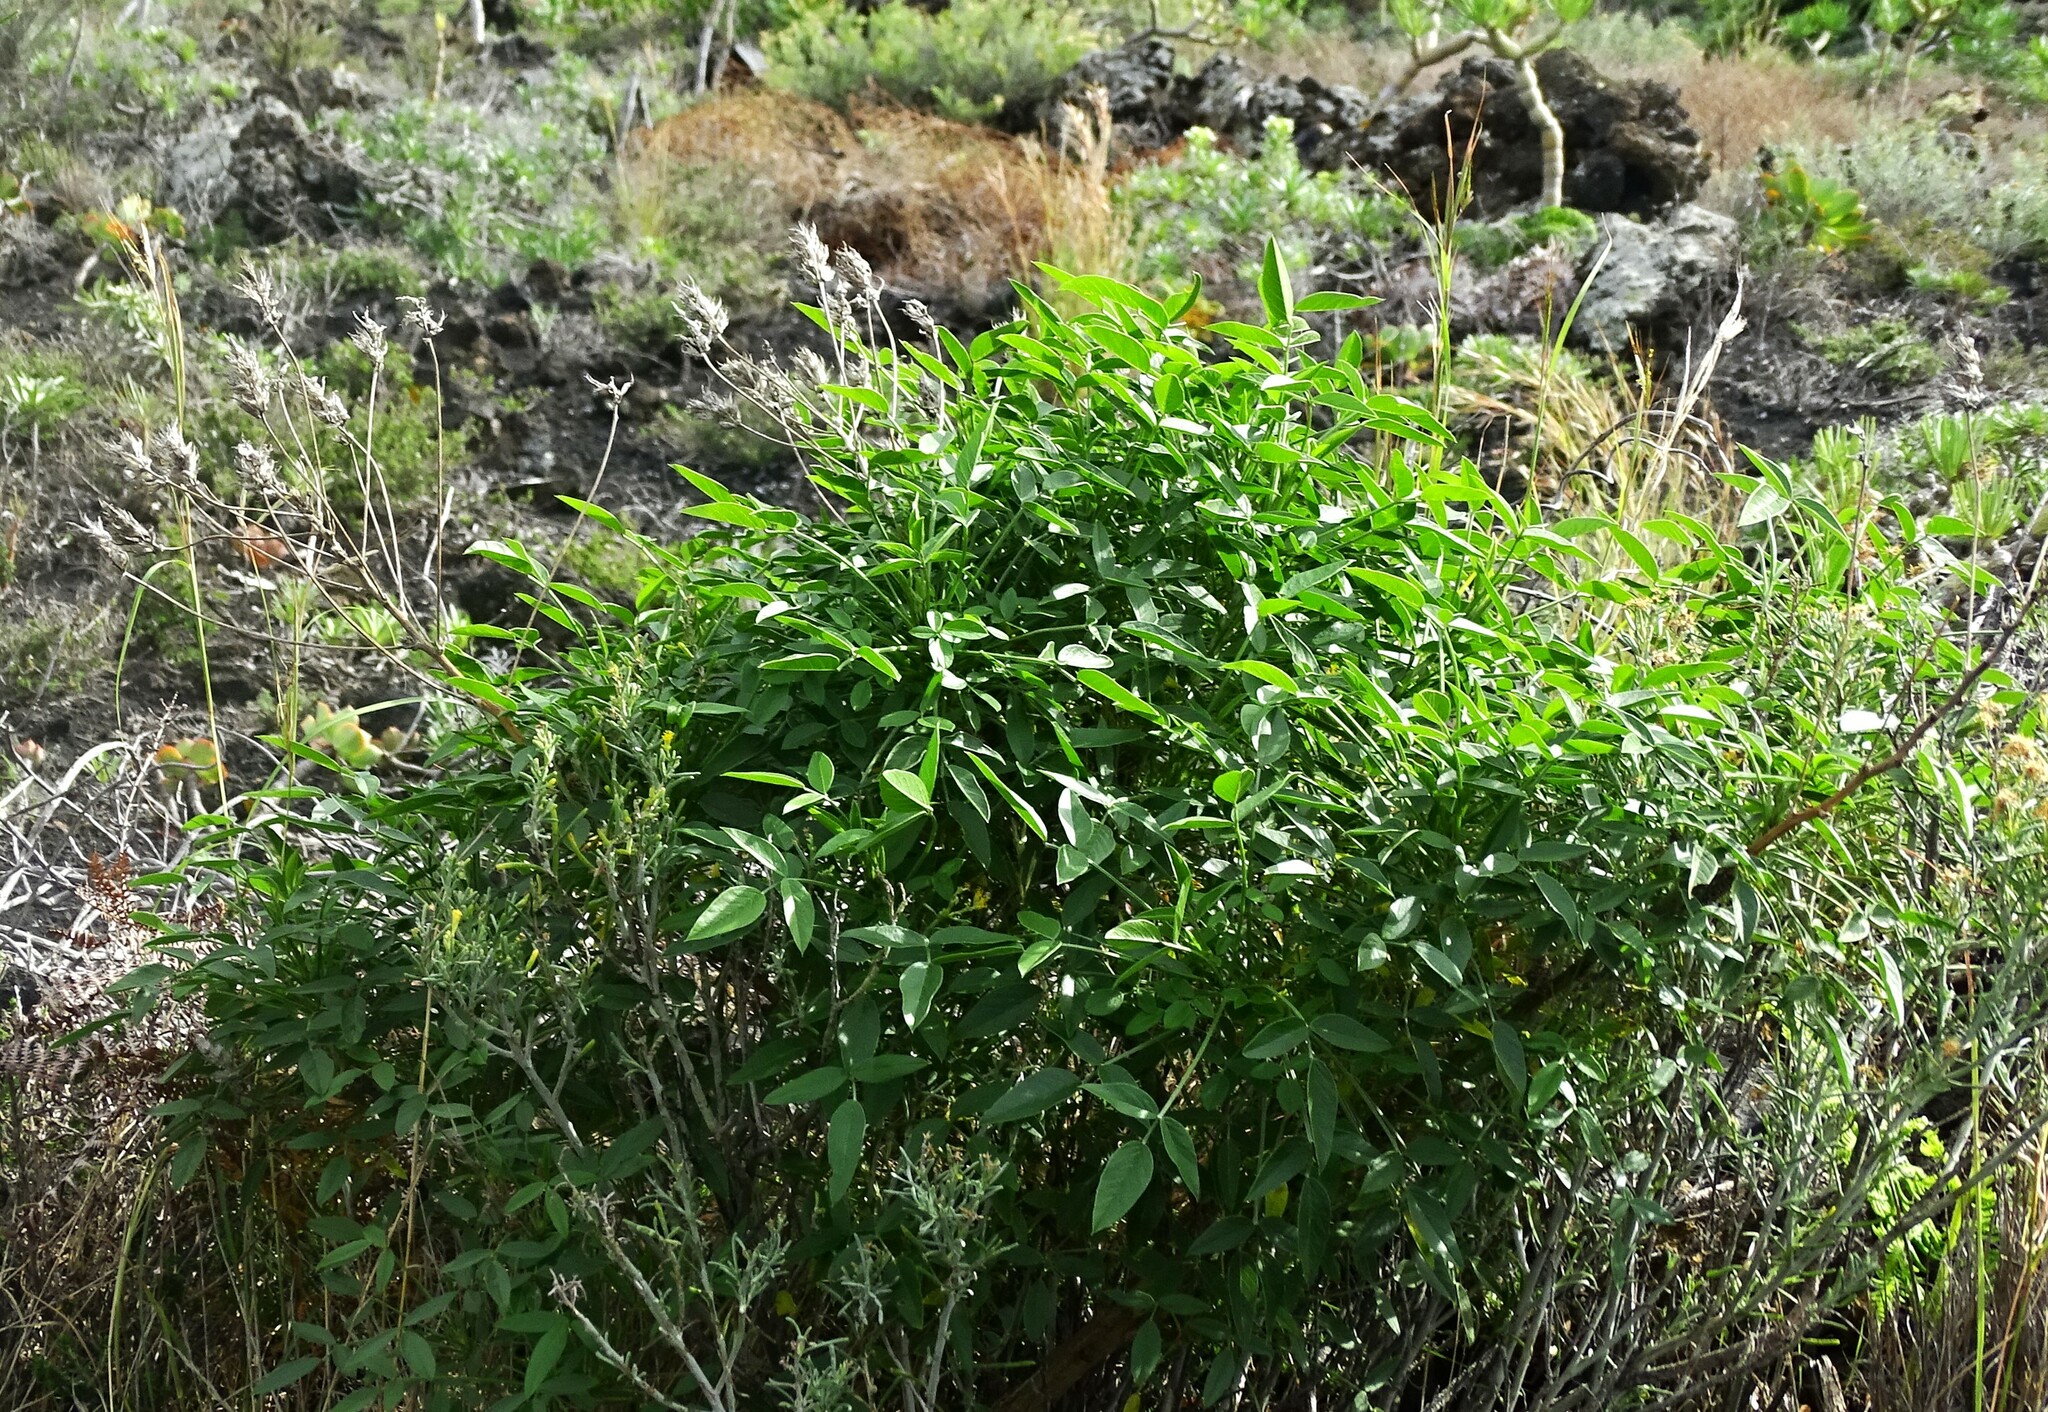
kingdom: Plantae
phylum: Tracheophyta
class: Magnoliopsida
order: Fabales
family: Fabaceae
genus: Bituminaria
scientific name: Bituminaria bituminosa
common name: Arabian pea
